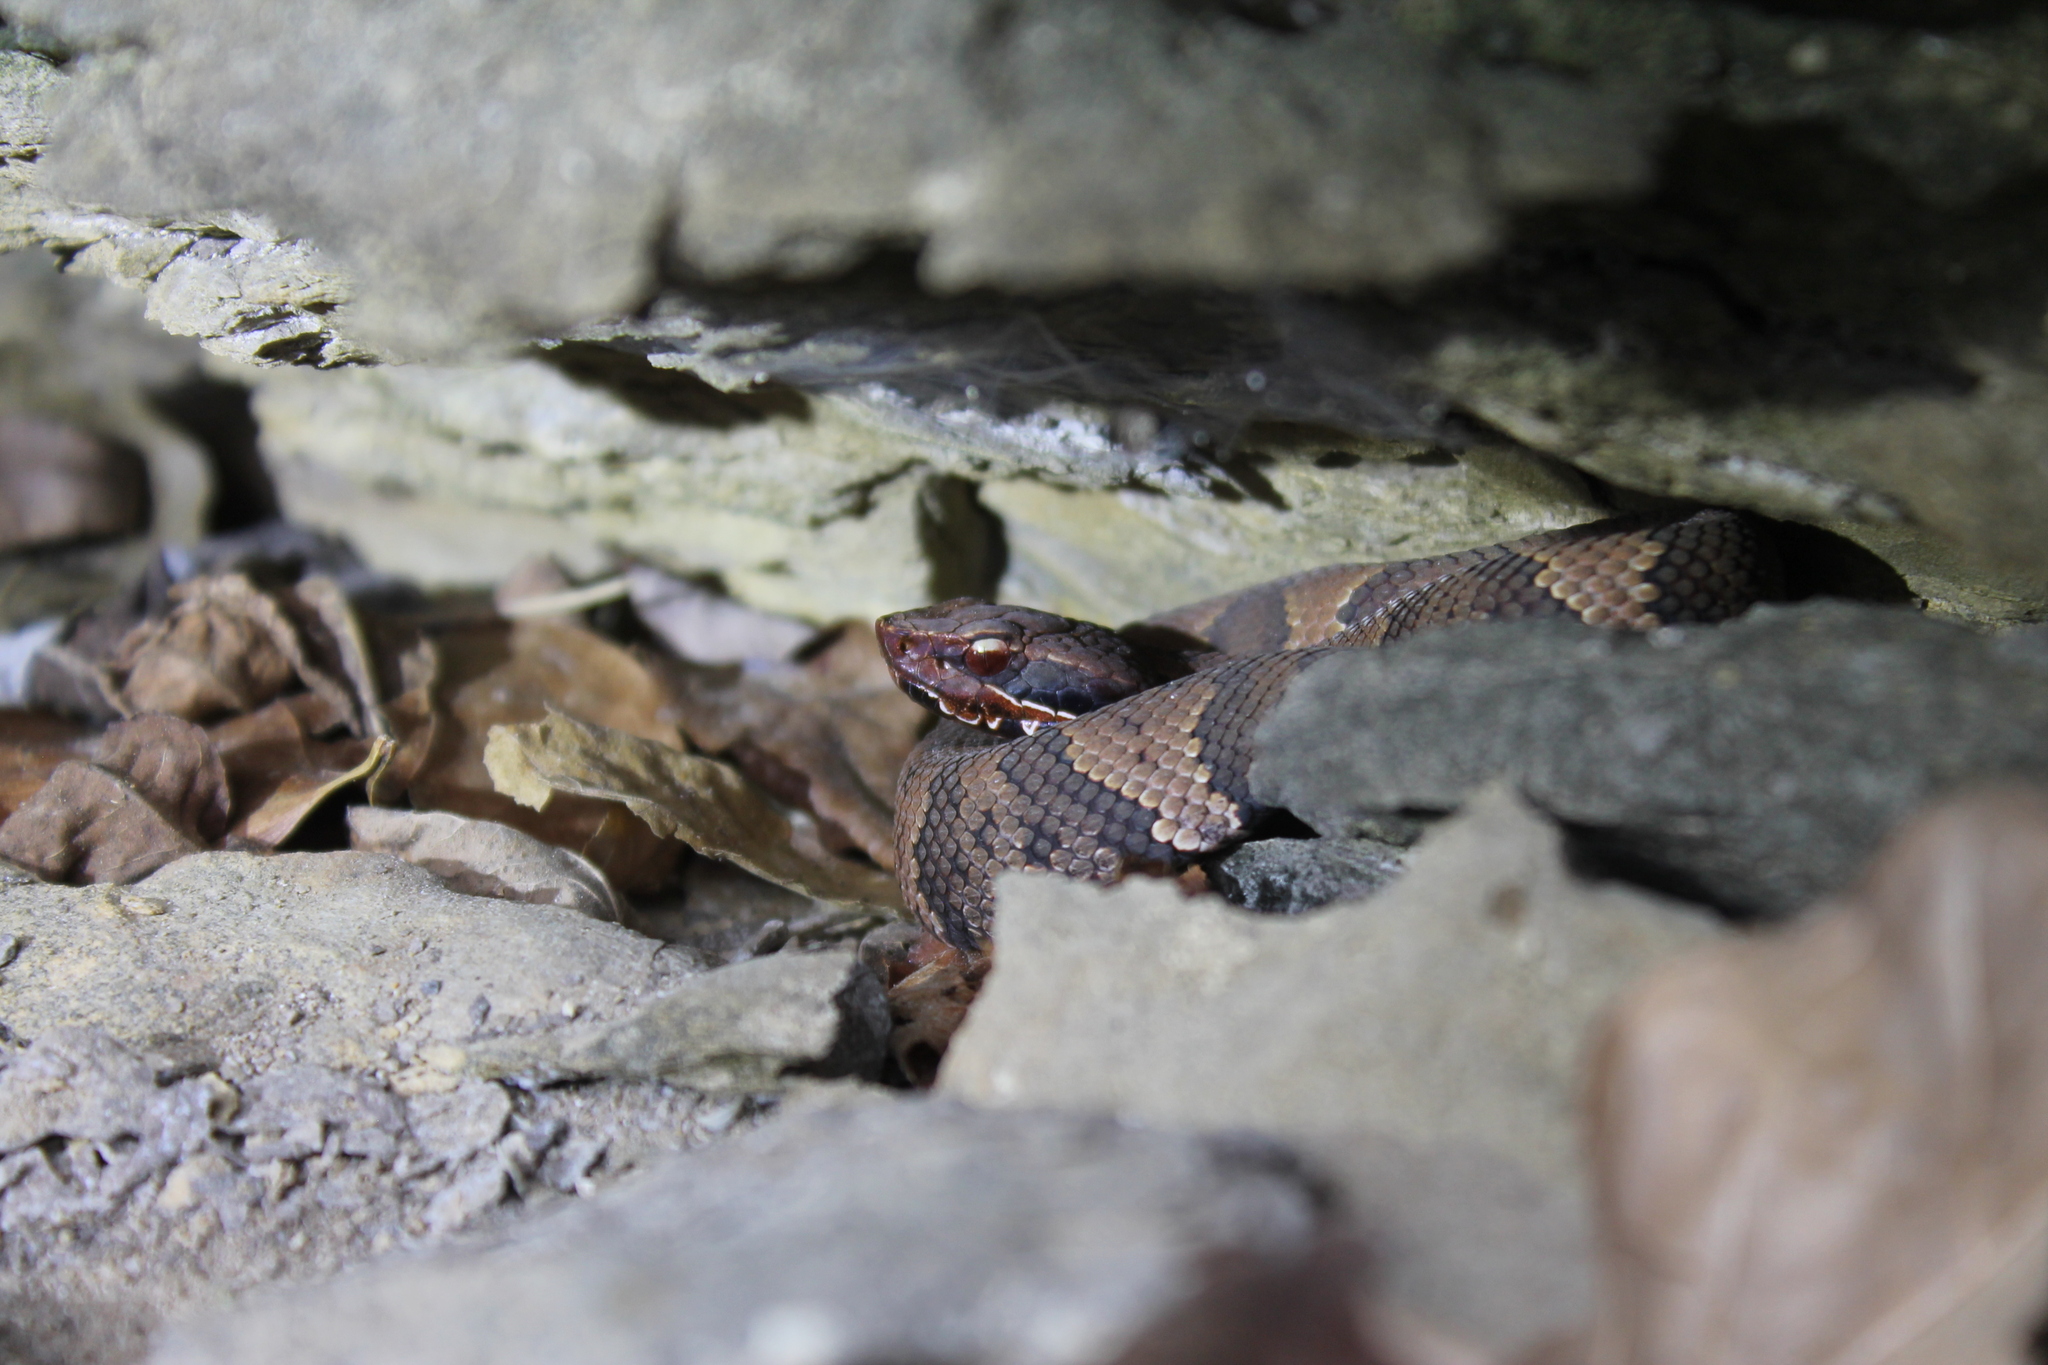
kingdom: Animalia
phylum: Chordata
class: Squamata
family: Viperidae
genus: Agkistrodon
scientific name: Agkistrodon piscivorus
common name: Cottonmouth
